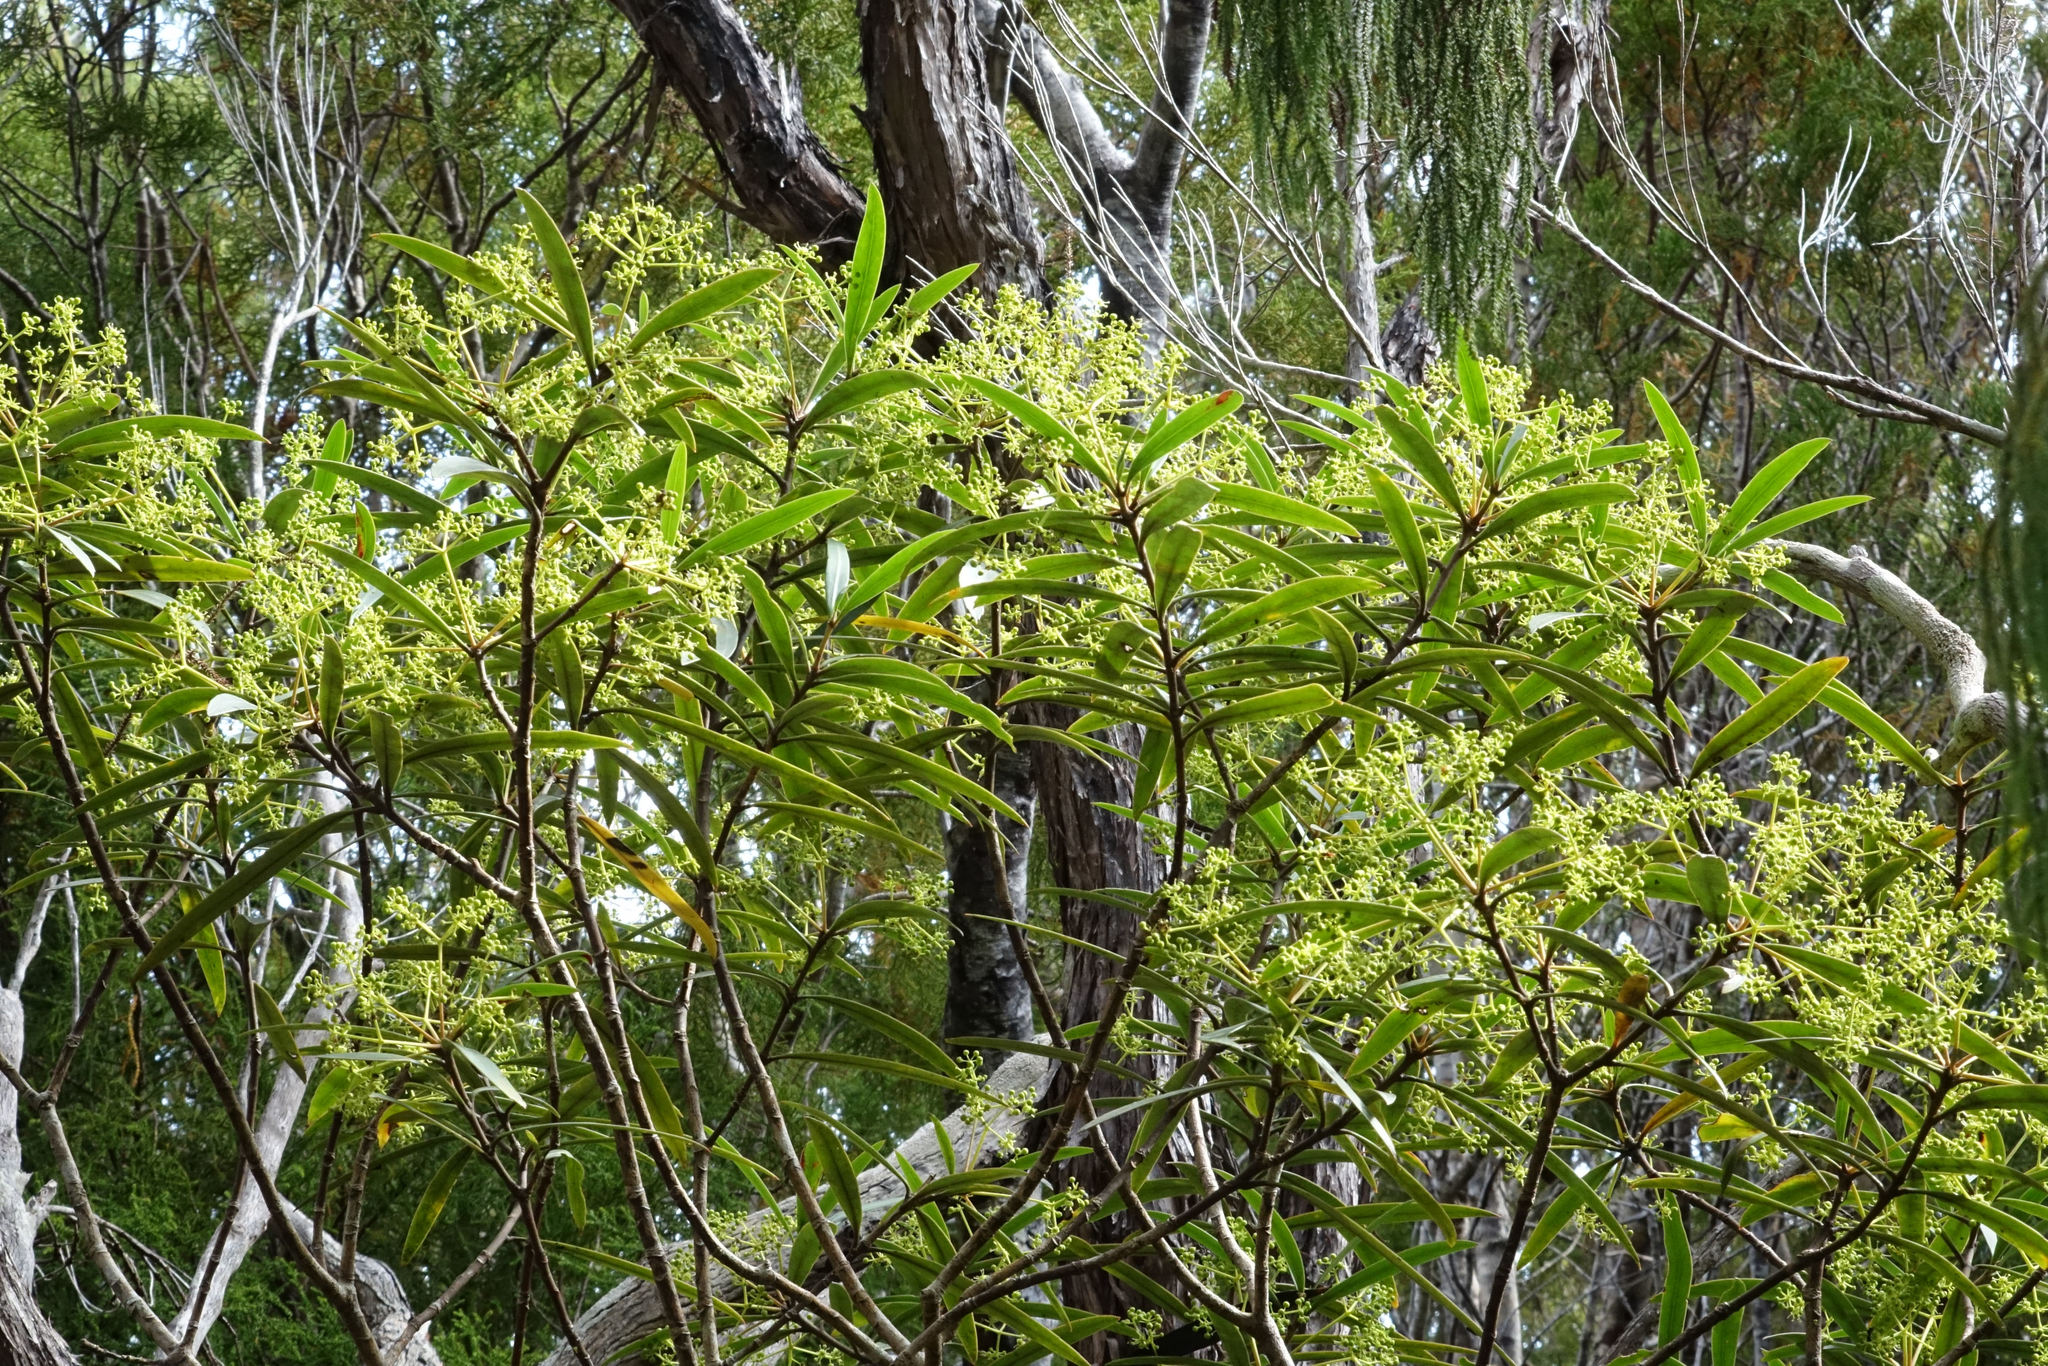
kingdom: Plantae
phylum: Tracheophyta
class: Magnoliopsida
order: Apiales
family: Araliaceae
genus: Pseudopanax
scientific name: Pseudopanax crassifolius
